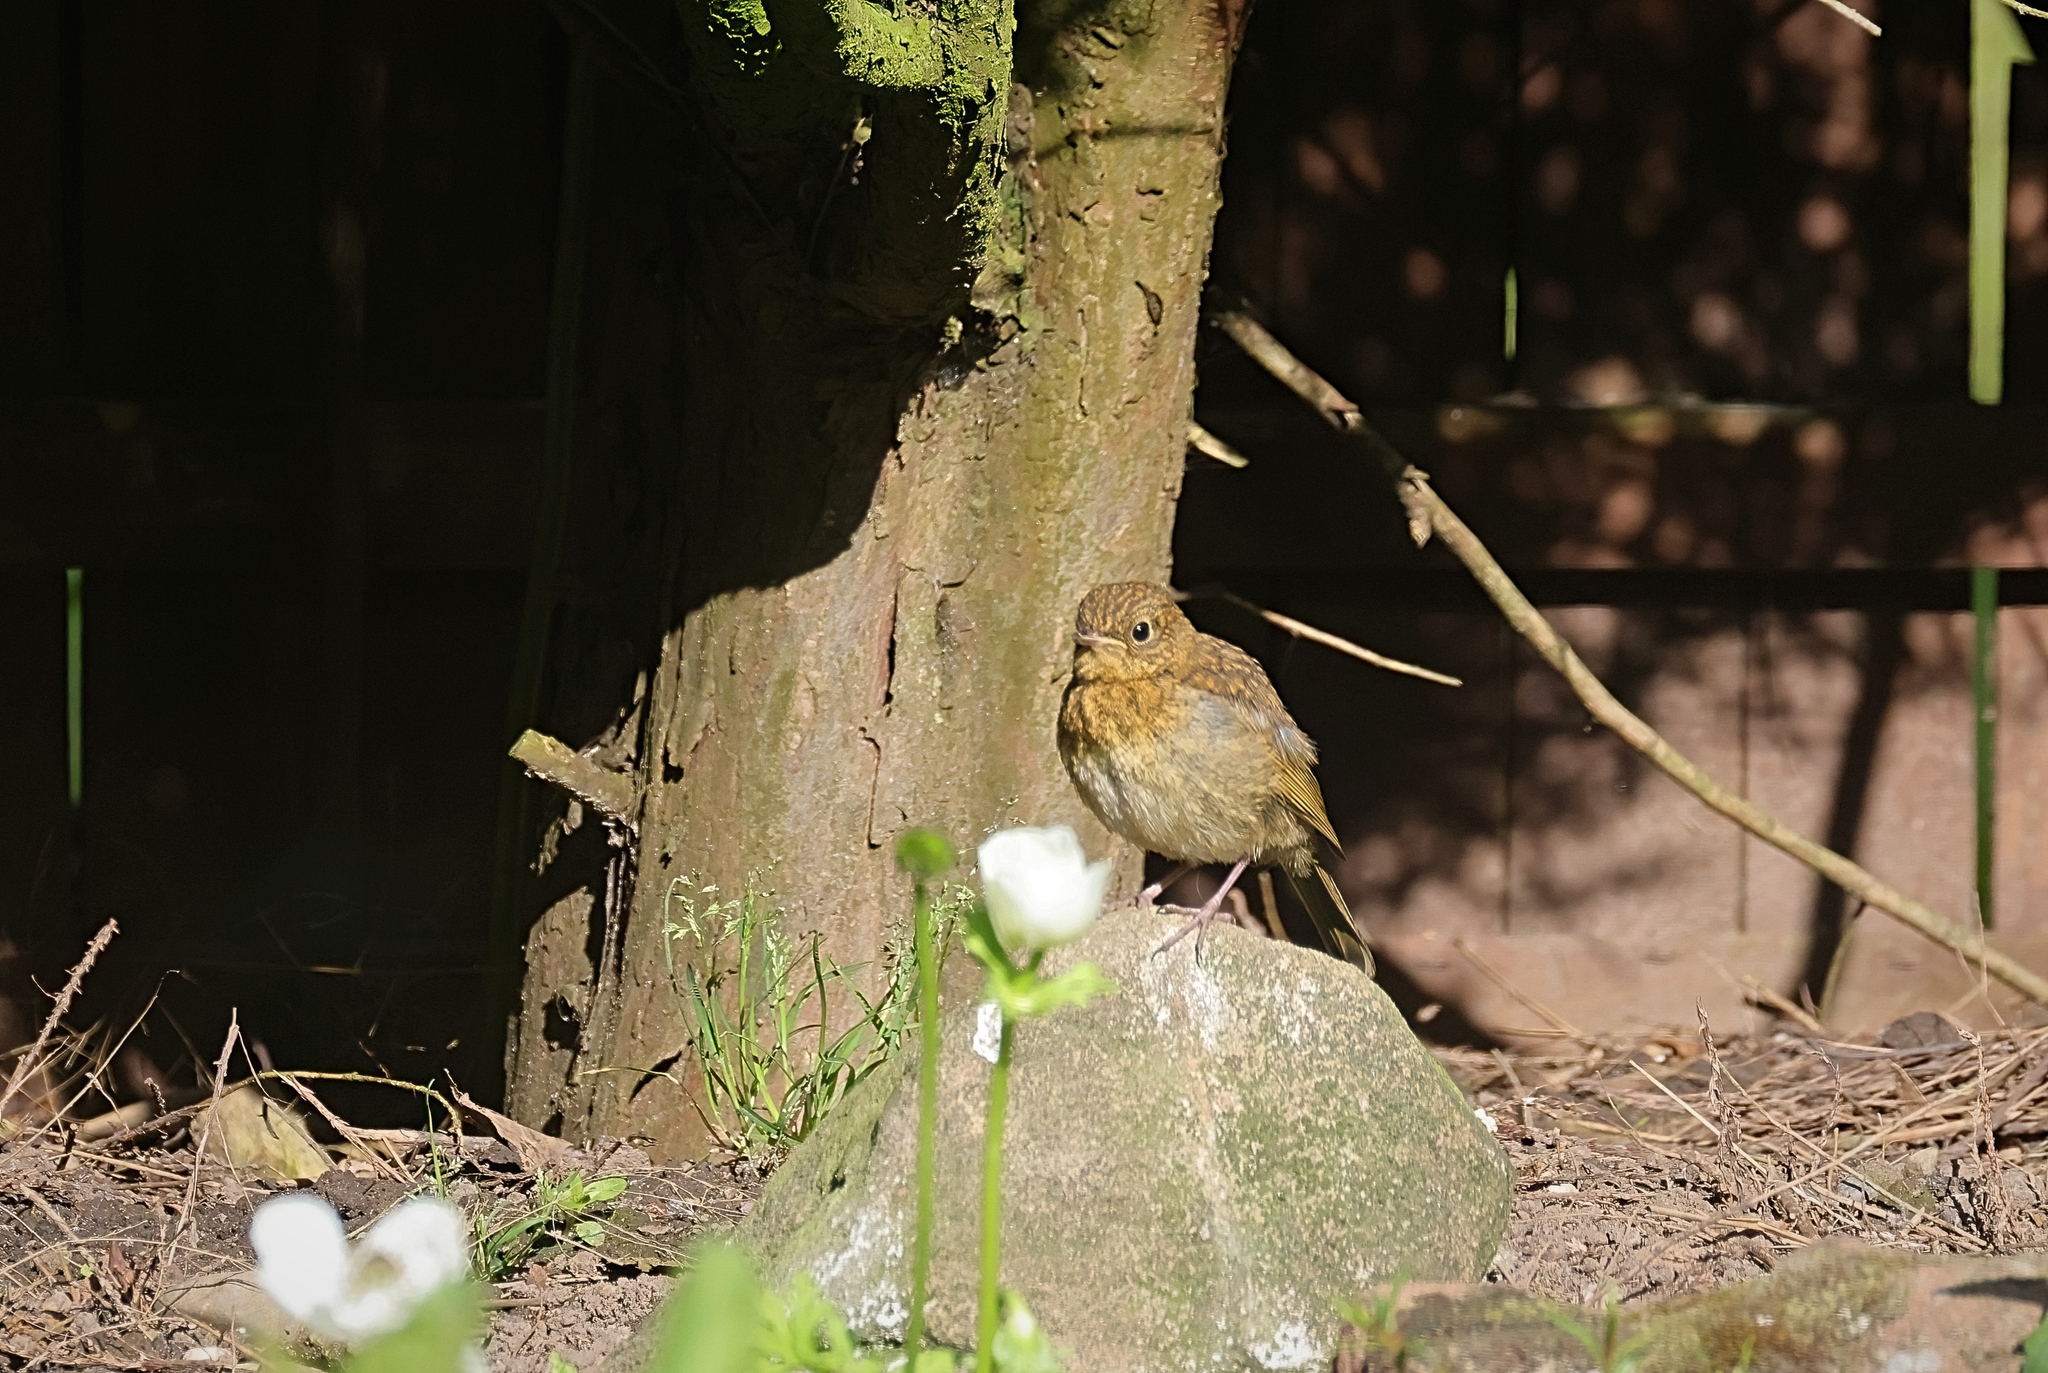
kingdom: Animalia
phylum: Chordata
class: Aves
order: Passeriformes
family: Muscicapidae
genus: Erithacus
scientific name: Erithacus rubecula
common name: European robin
